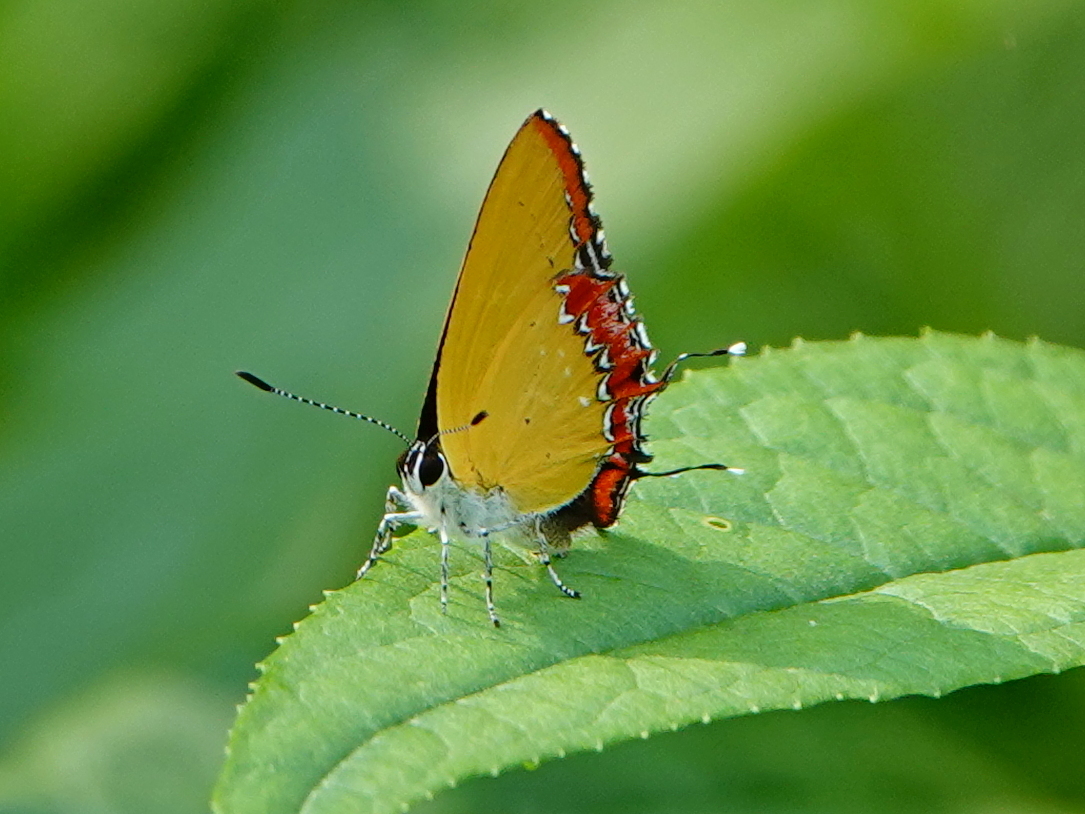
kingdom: Animalia
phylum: Arthropoda
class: Insecta
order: Lepidoptera
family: Lycaenidae
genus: Heliophorus
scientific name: Heliophorus epicles
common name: Purple sapphire
